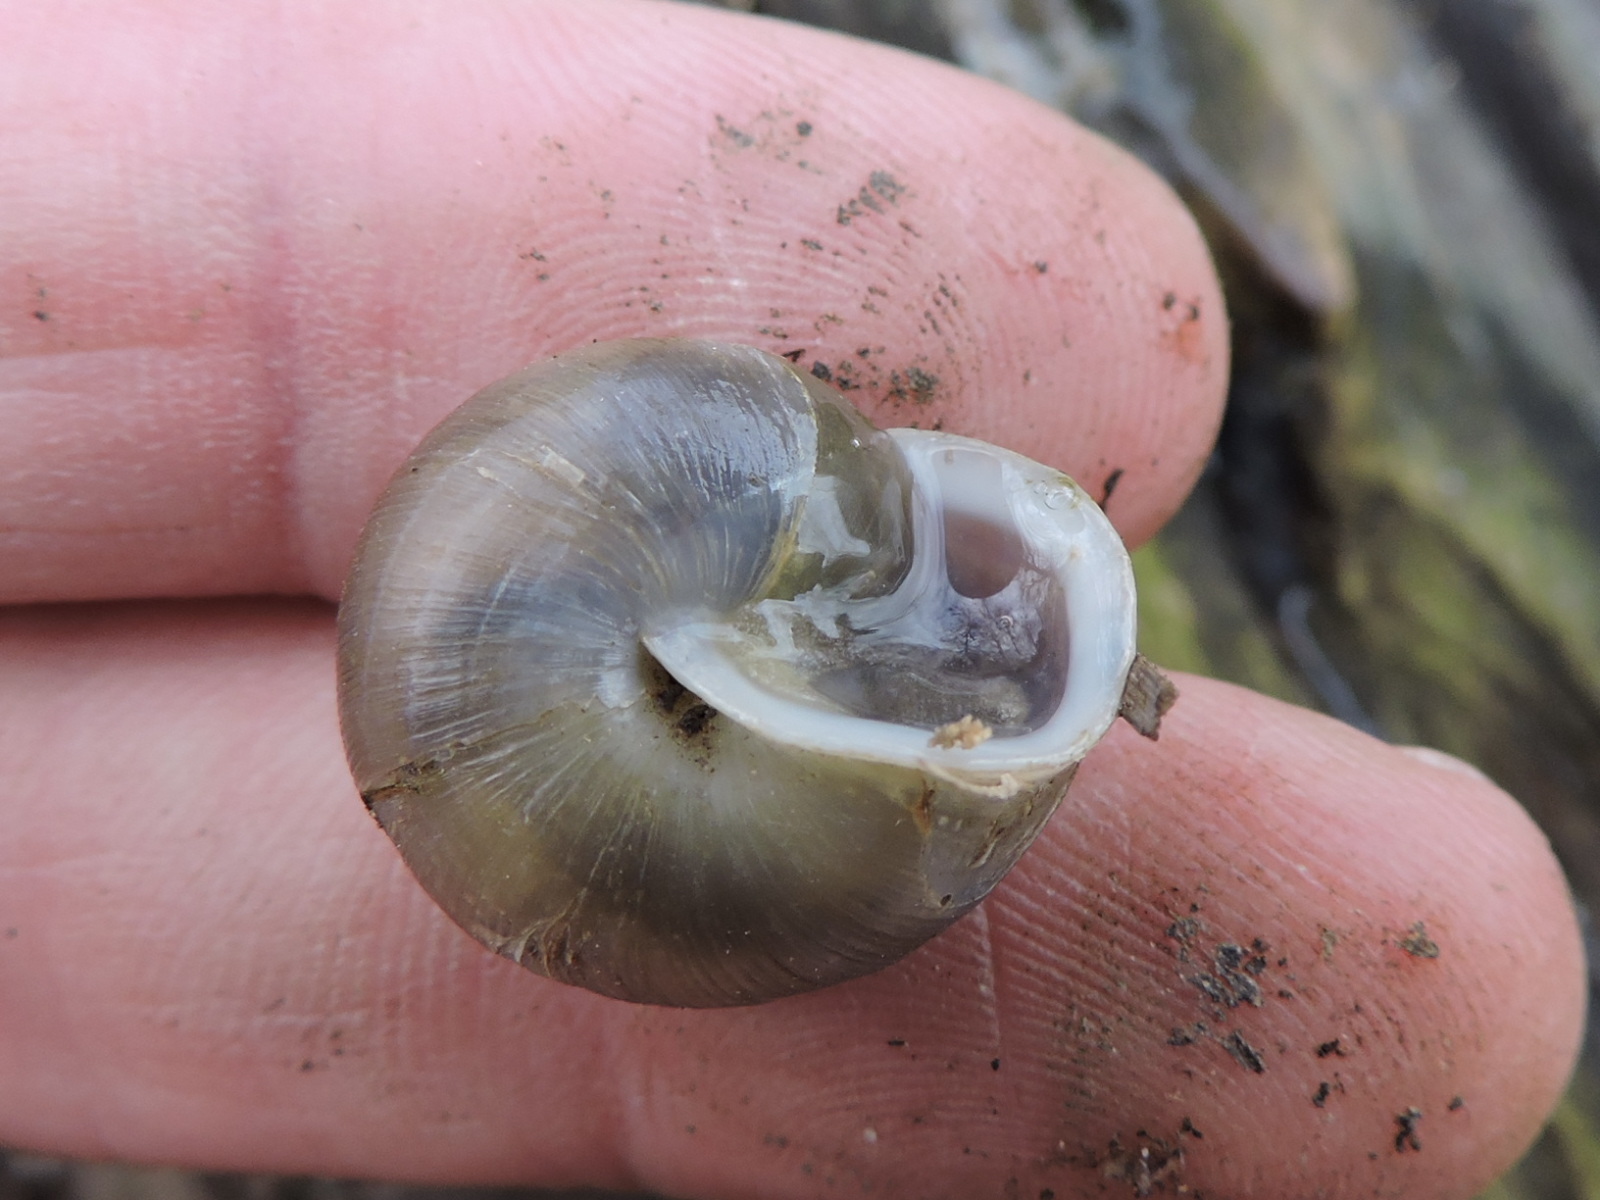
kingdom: Animalia
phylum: Mollusca
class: Gastropoda
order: Stylommatophora
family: Polygyridae
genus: Mesodon
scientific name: Mesodon thyroidus
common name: White-lip globe
